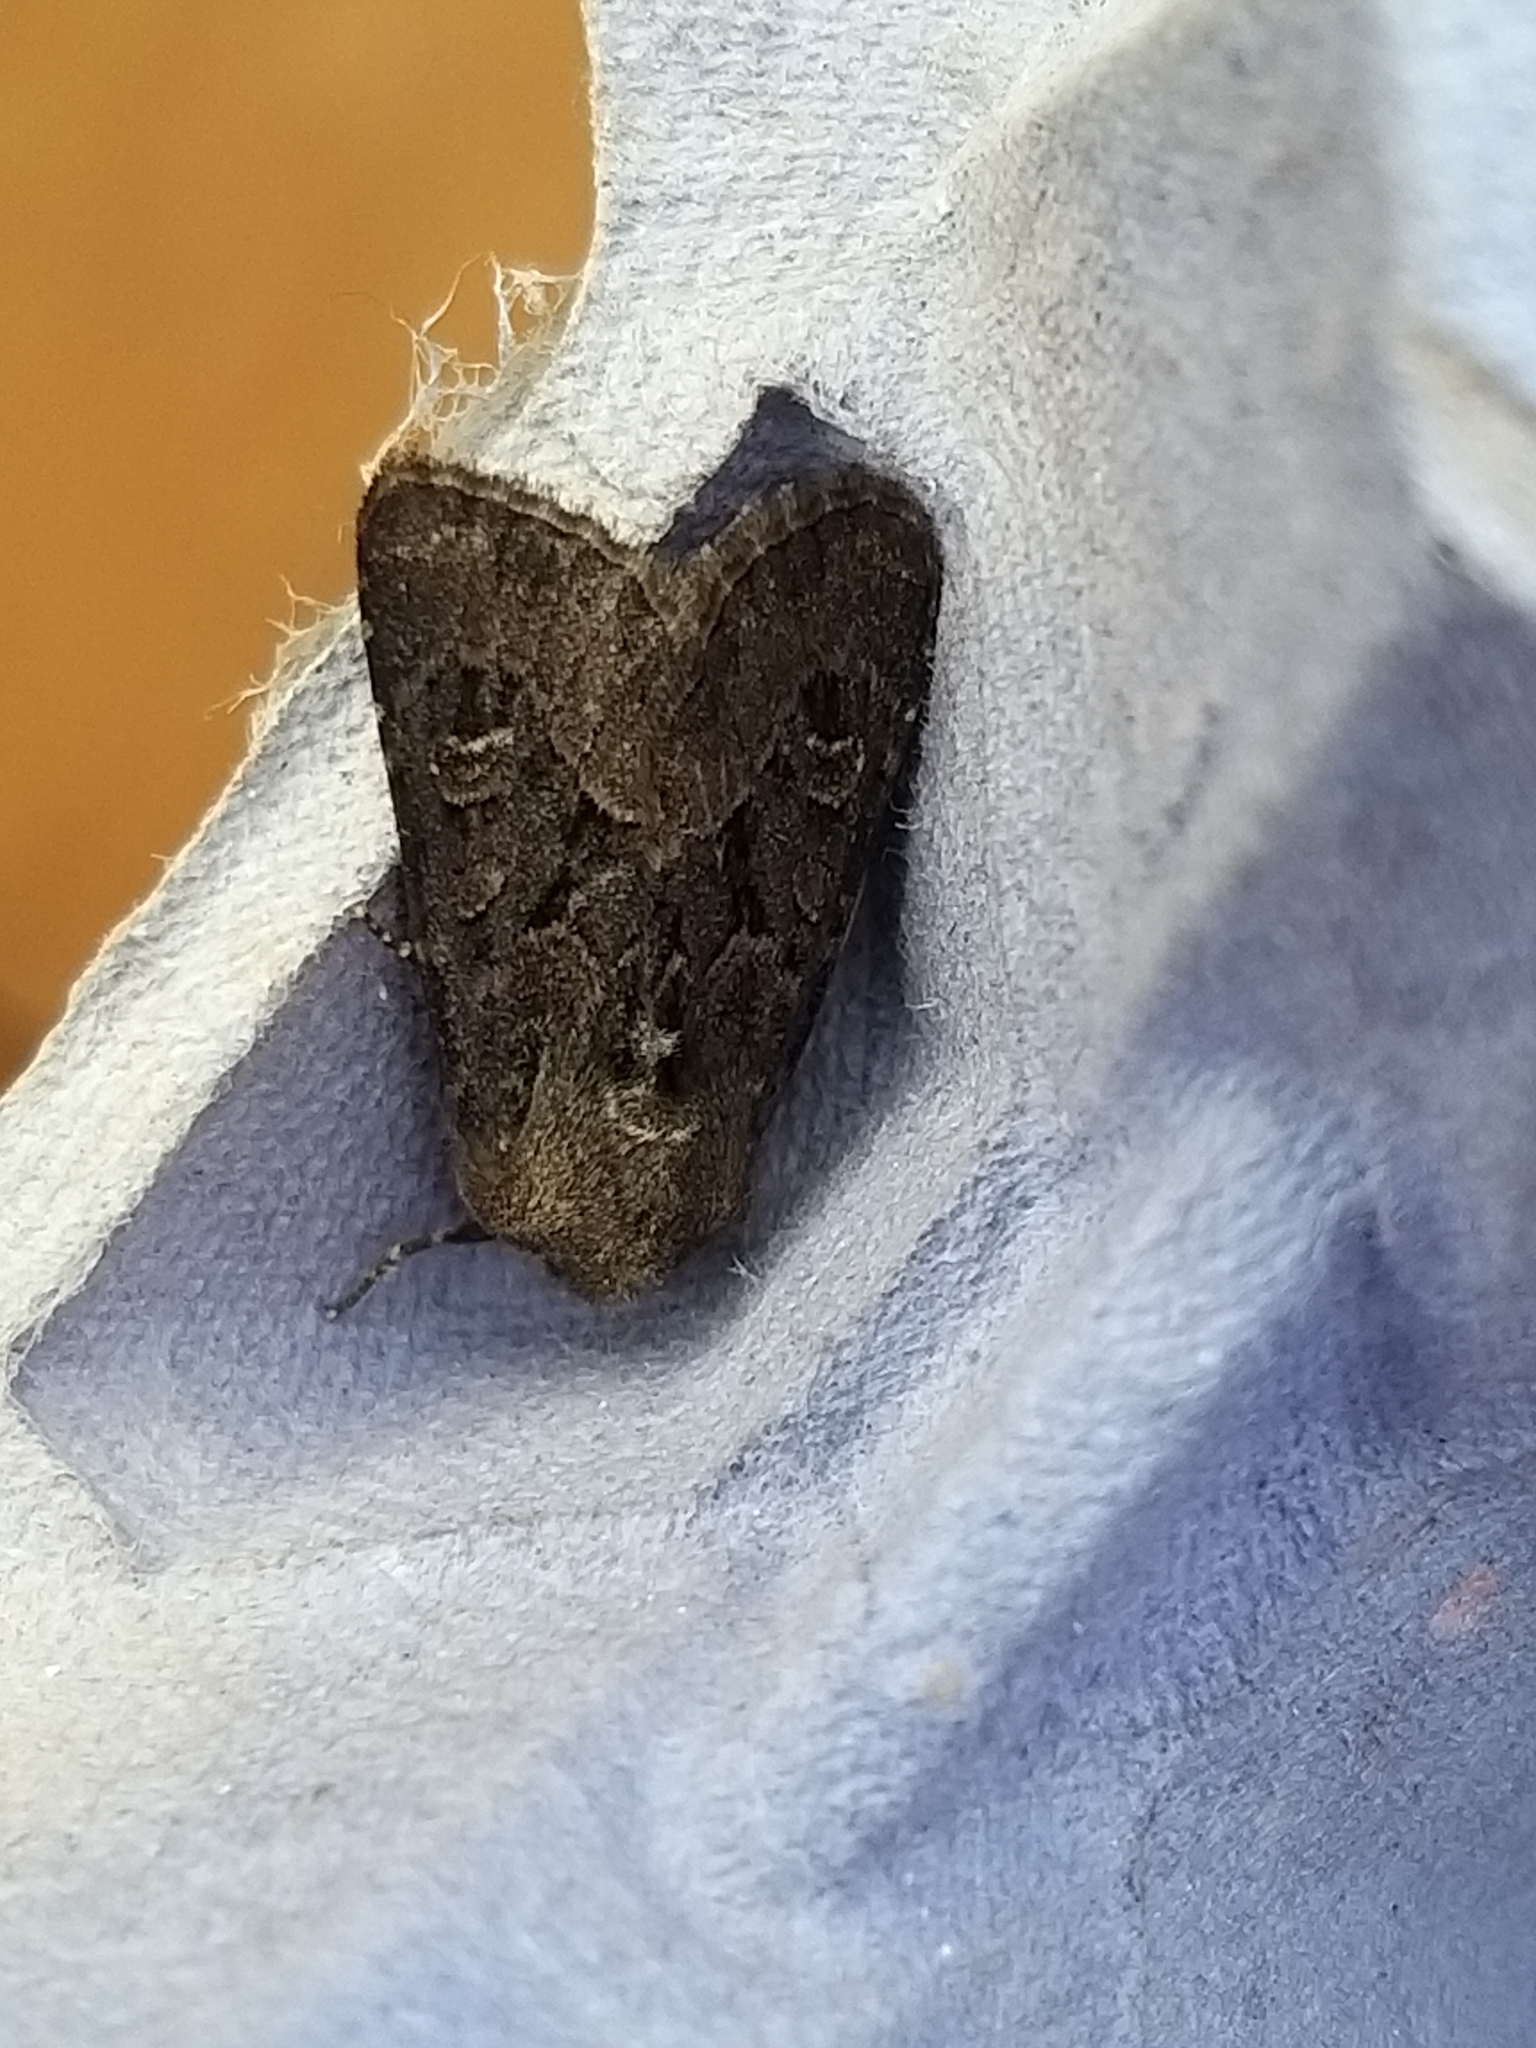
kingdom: Animalia
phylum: Arthropoda
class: Insecta
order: Lepidoptera
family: Noctuidae
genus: Luperina
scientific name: Luperina testacea
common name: Flounced rustic
